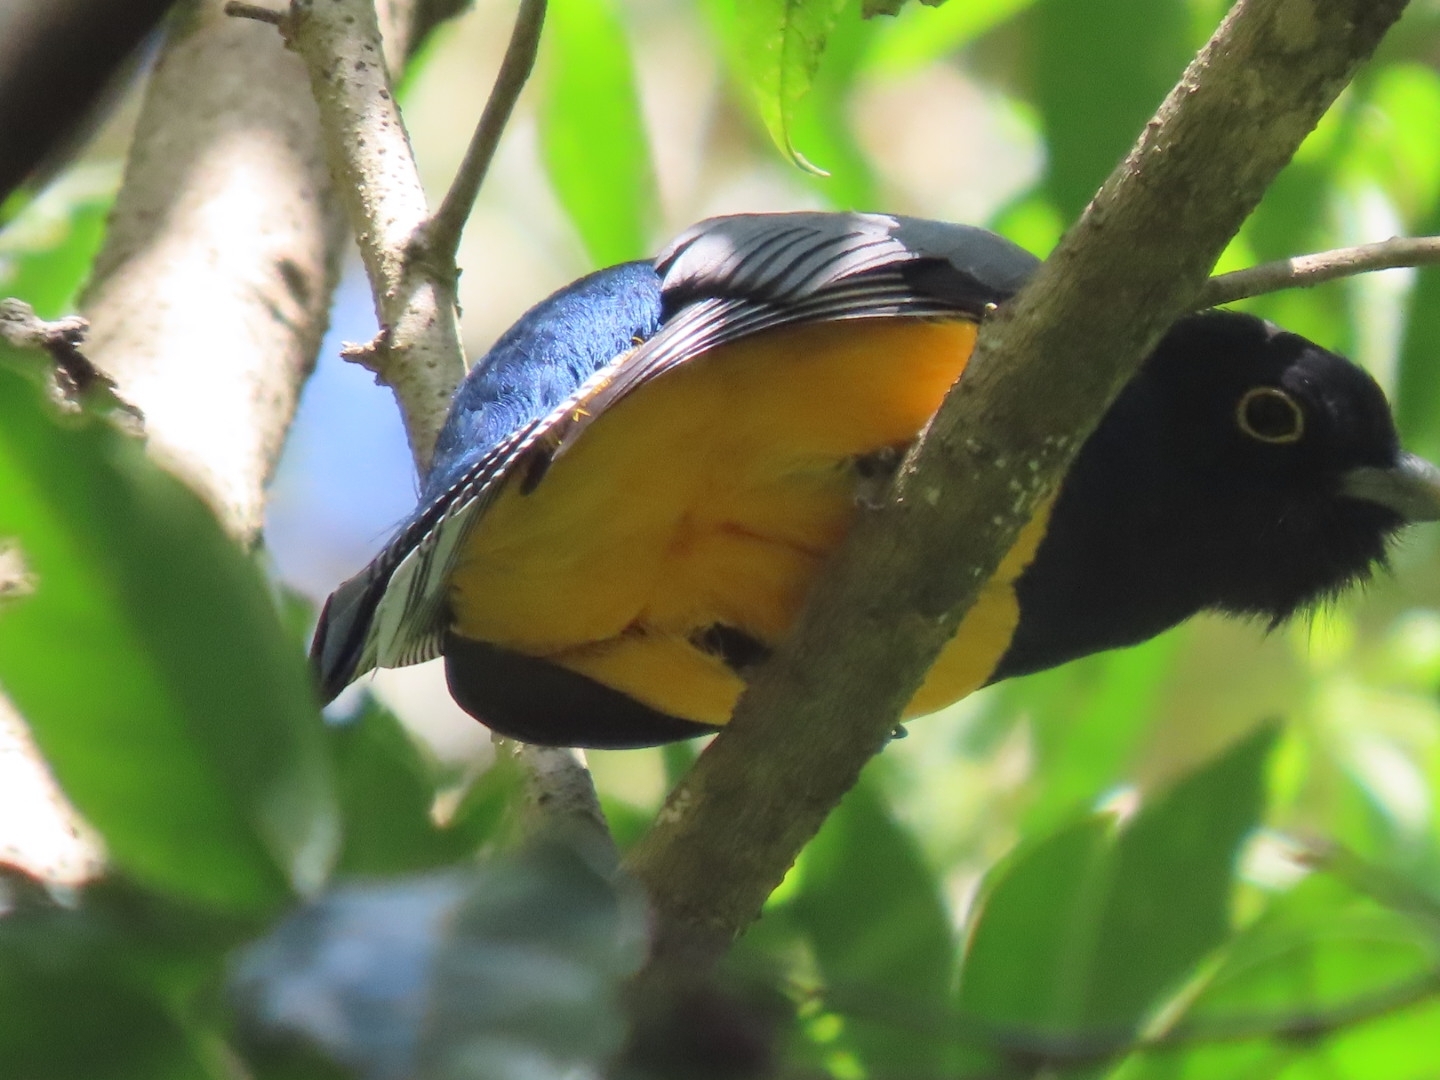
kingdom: Animalia
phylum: Chordata
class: Aves
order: Trogoniformes
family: Trogonidae
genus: Trogon
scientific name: Trogon caligatus
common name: Gartered trogon
